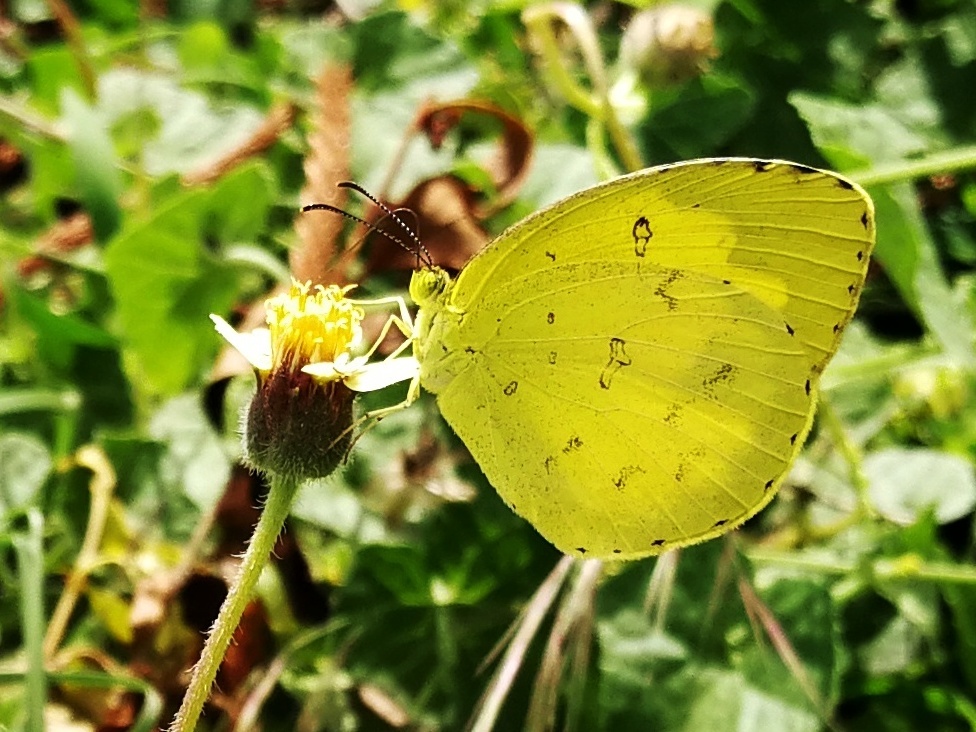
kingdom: Animalia
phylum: Arthropoda
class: Insecta
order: Lepidoptera
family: Pieridae
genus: Eurema
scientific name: Eurema hecabe
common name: Pale grass yellow
